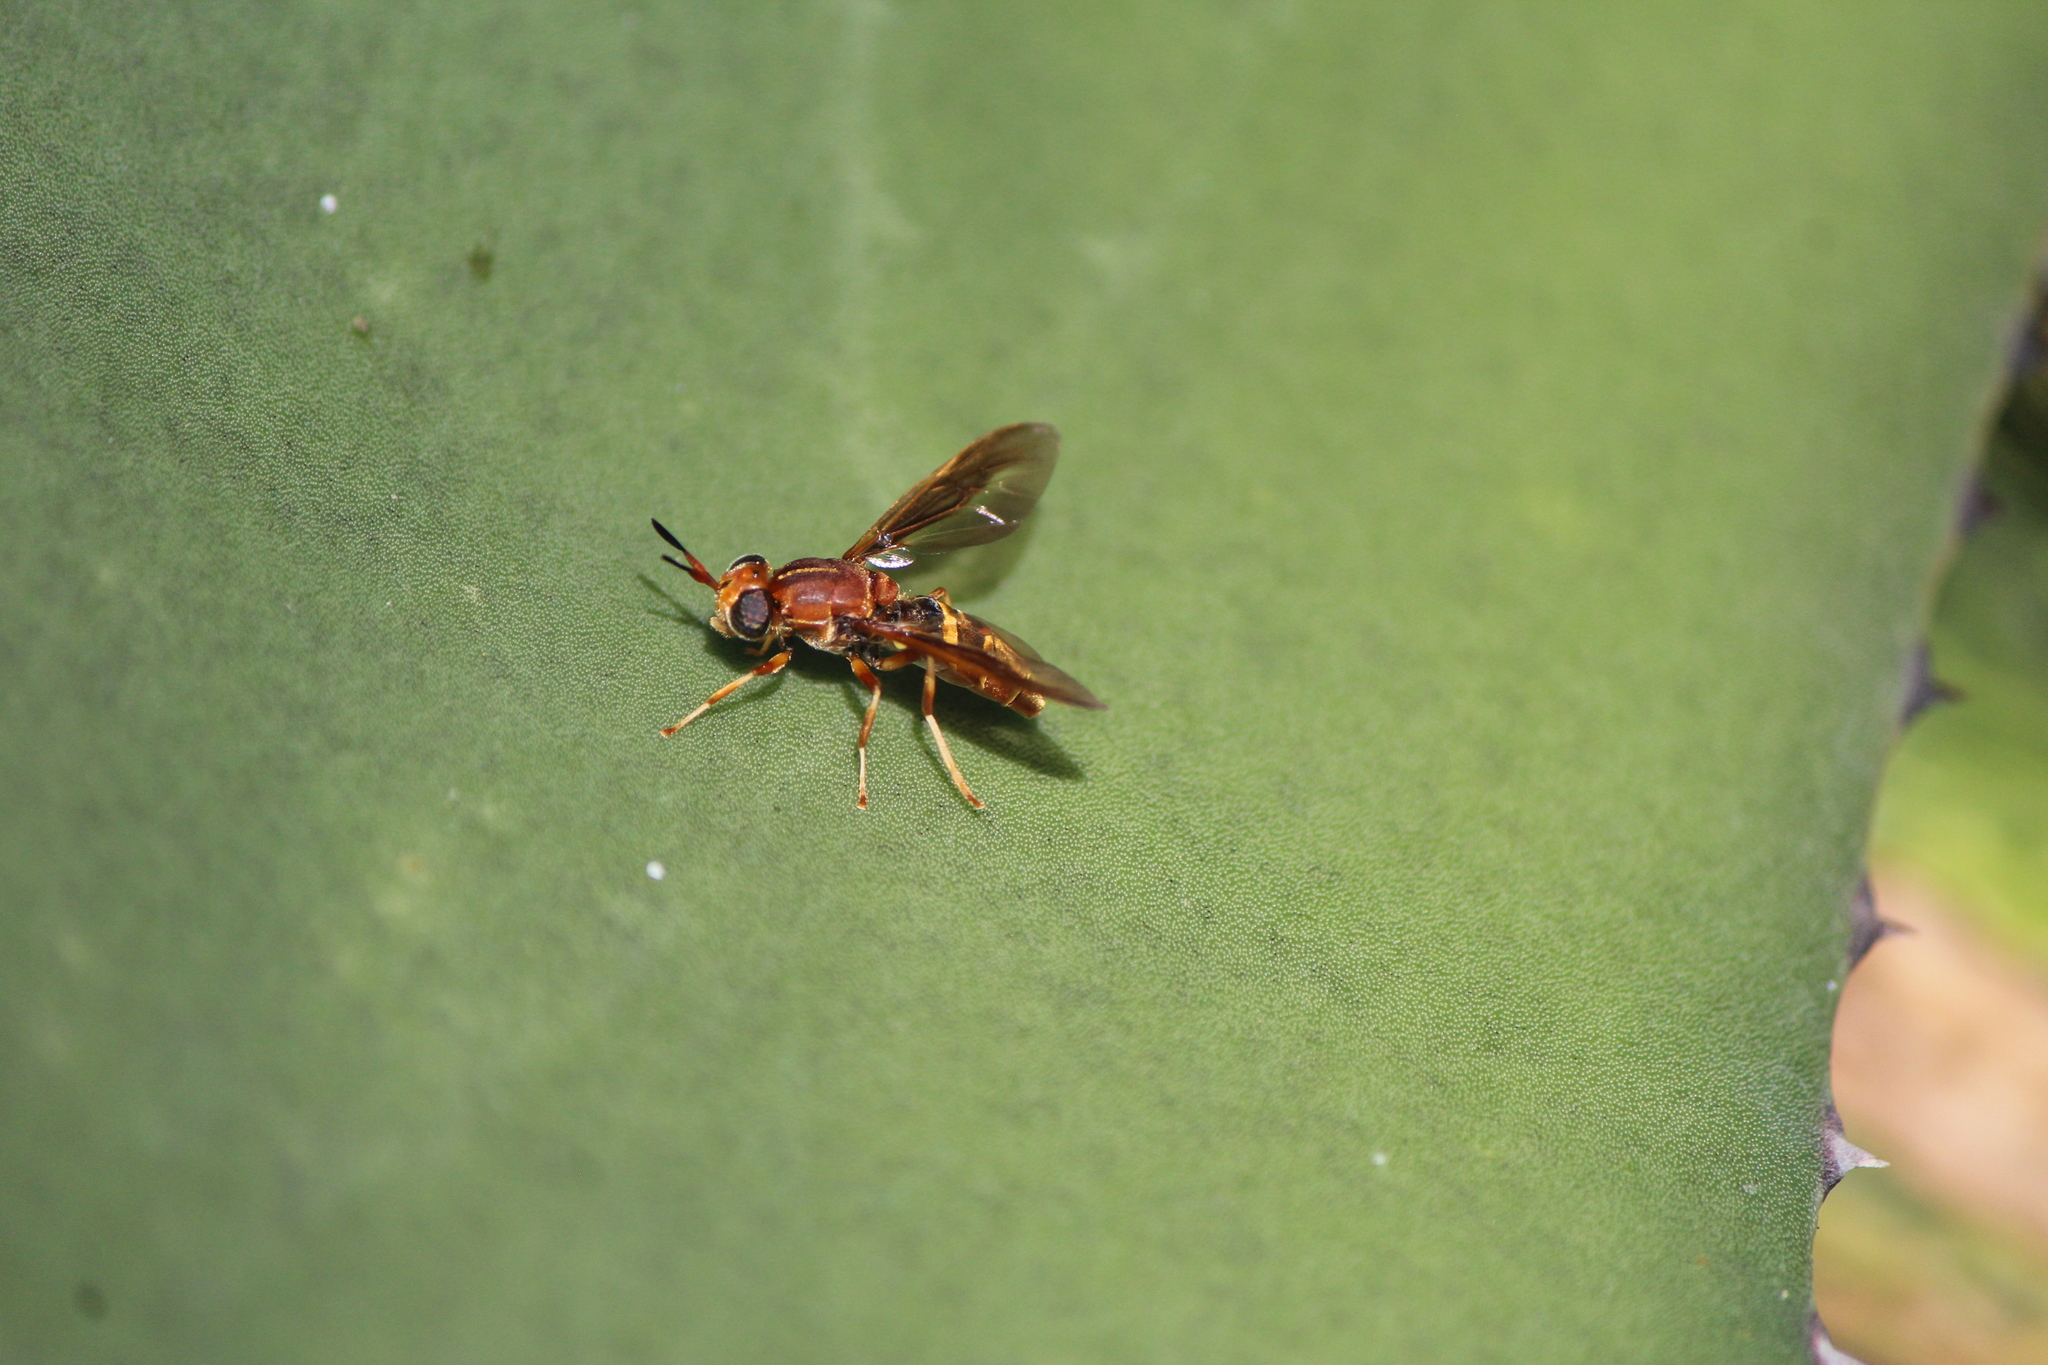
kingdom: Animalia
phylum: Arthropoda
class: Insecta
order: Diptera
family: Stratiomyidae
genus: Hermetia
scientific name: Hermetia comstocki
